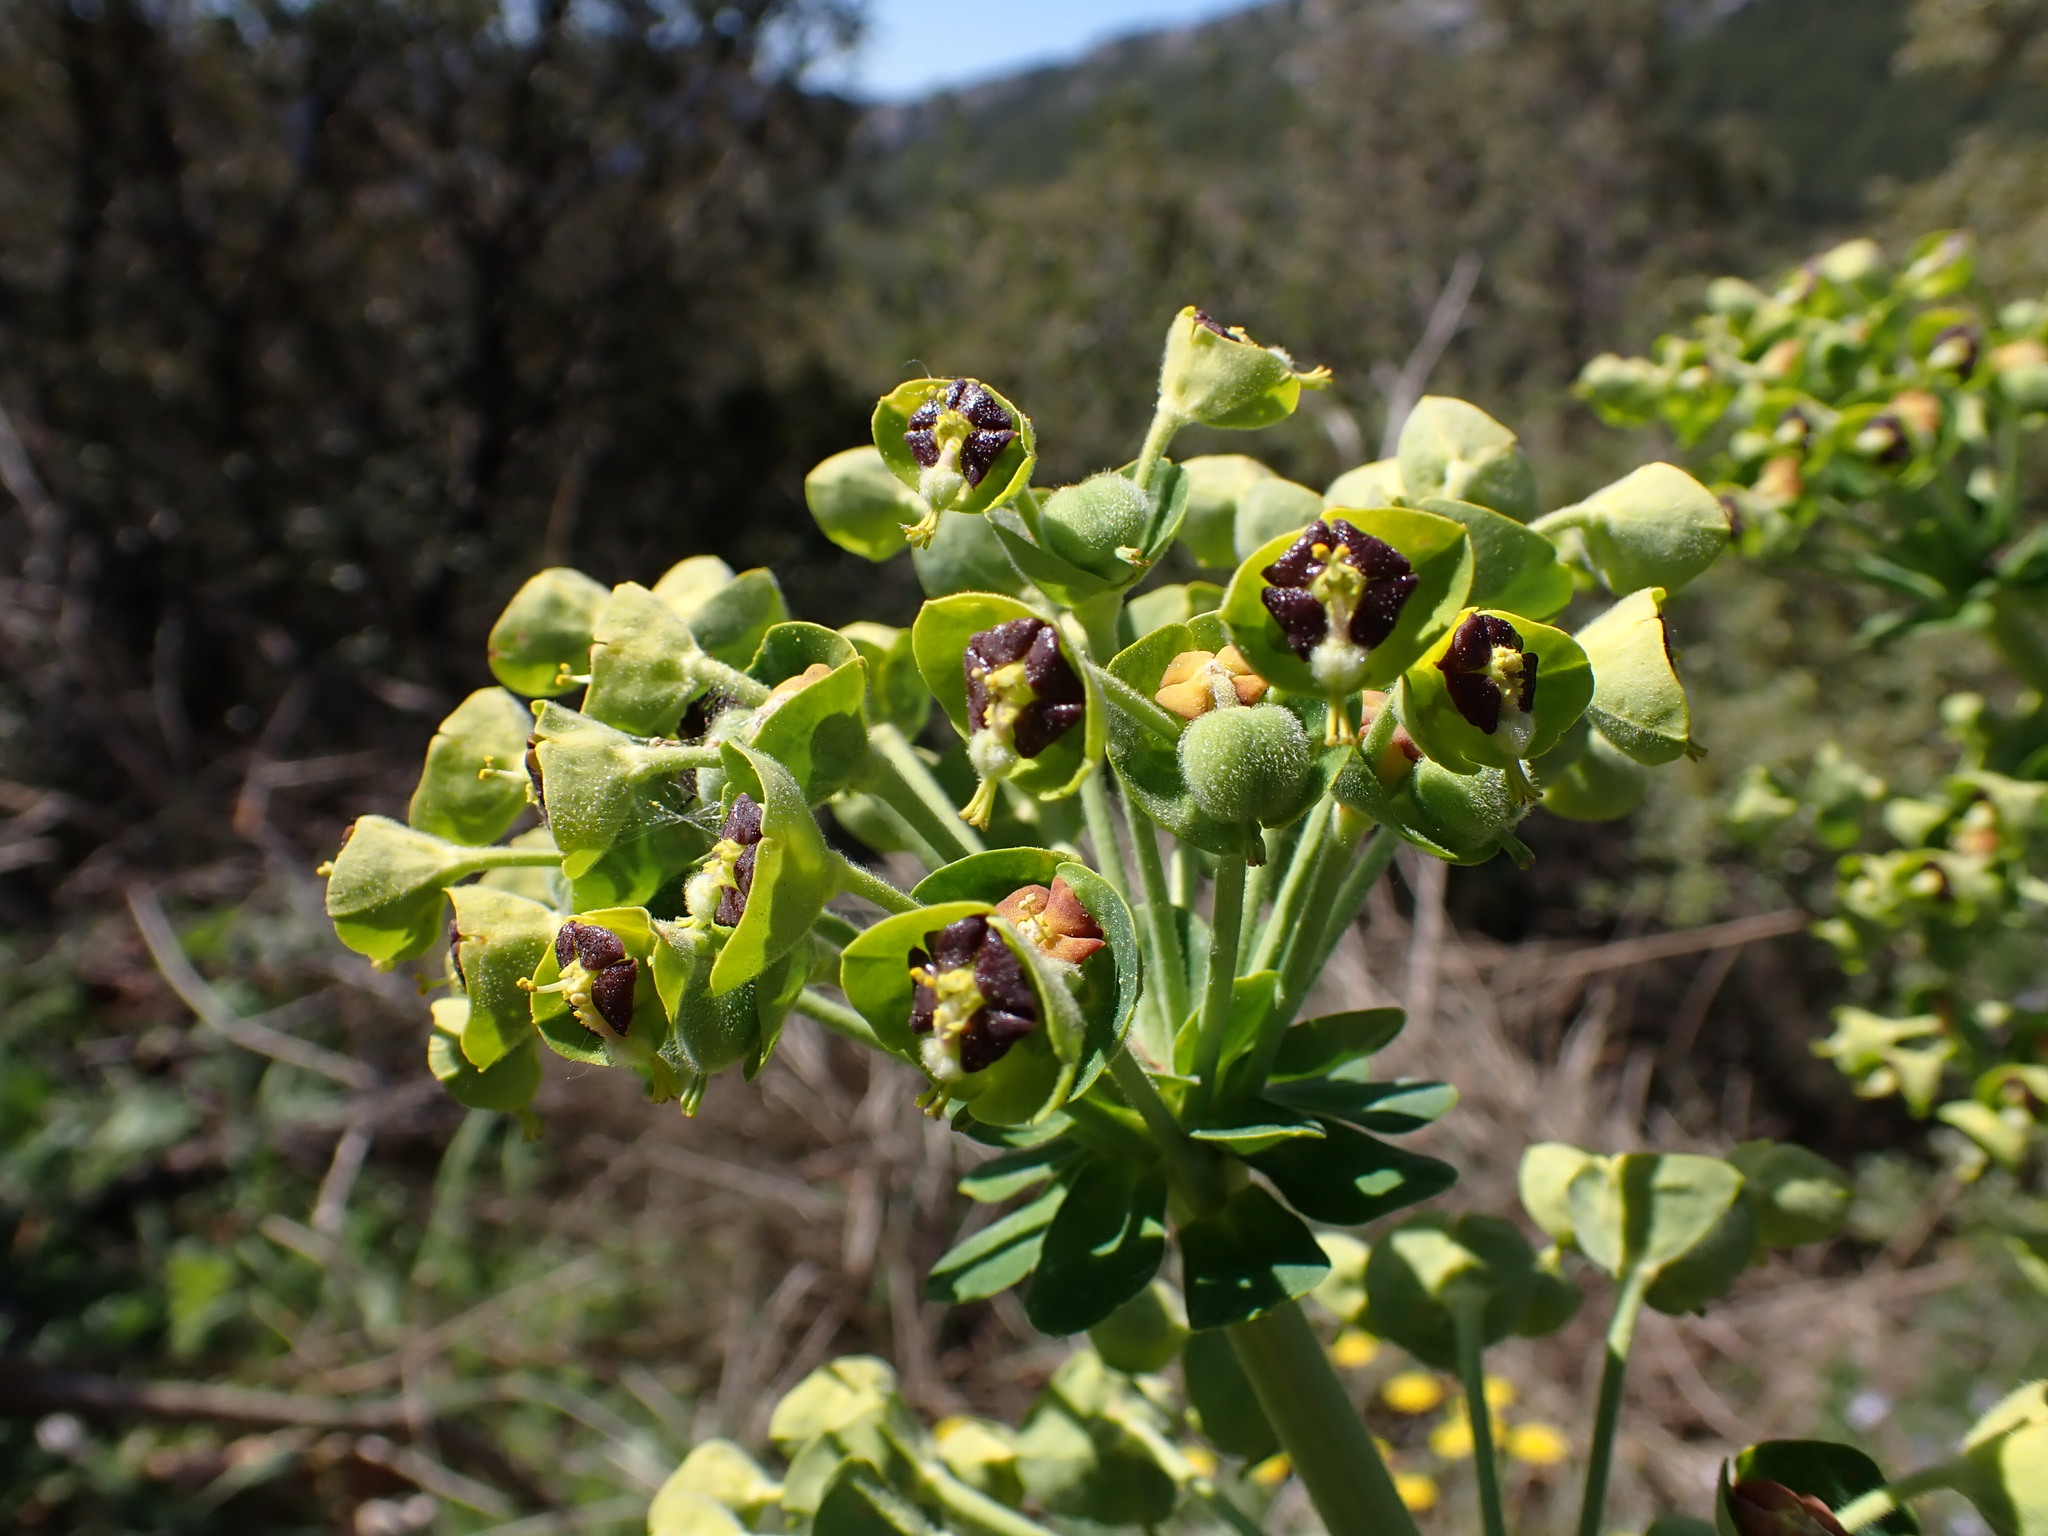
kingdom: Plantae
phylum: Tracheophyta
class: Magnoliopsida
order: Malpighiales
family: Euphorbiaceae
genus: Euphorbia
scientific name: Euphorbia characias
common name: Mediterranean spurge
